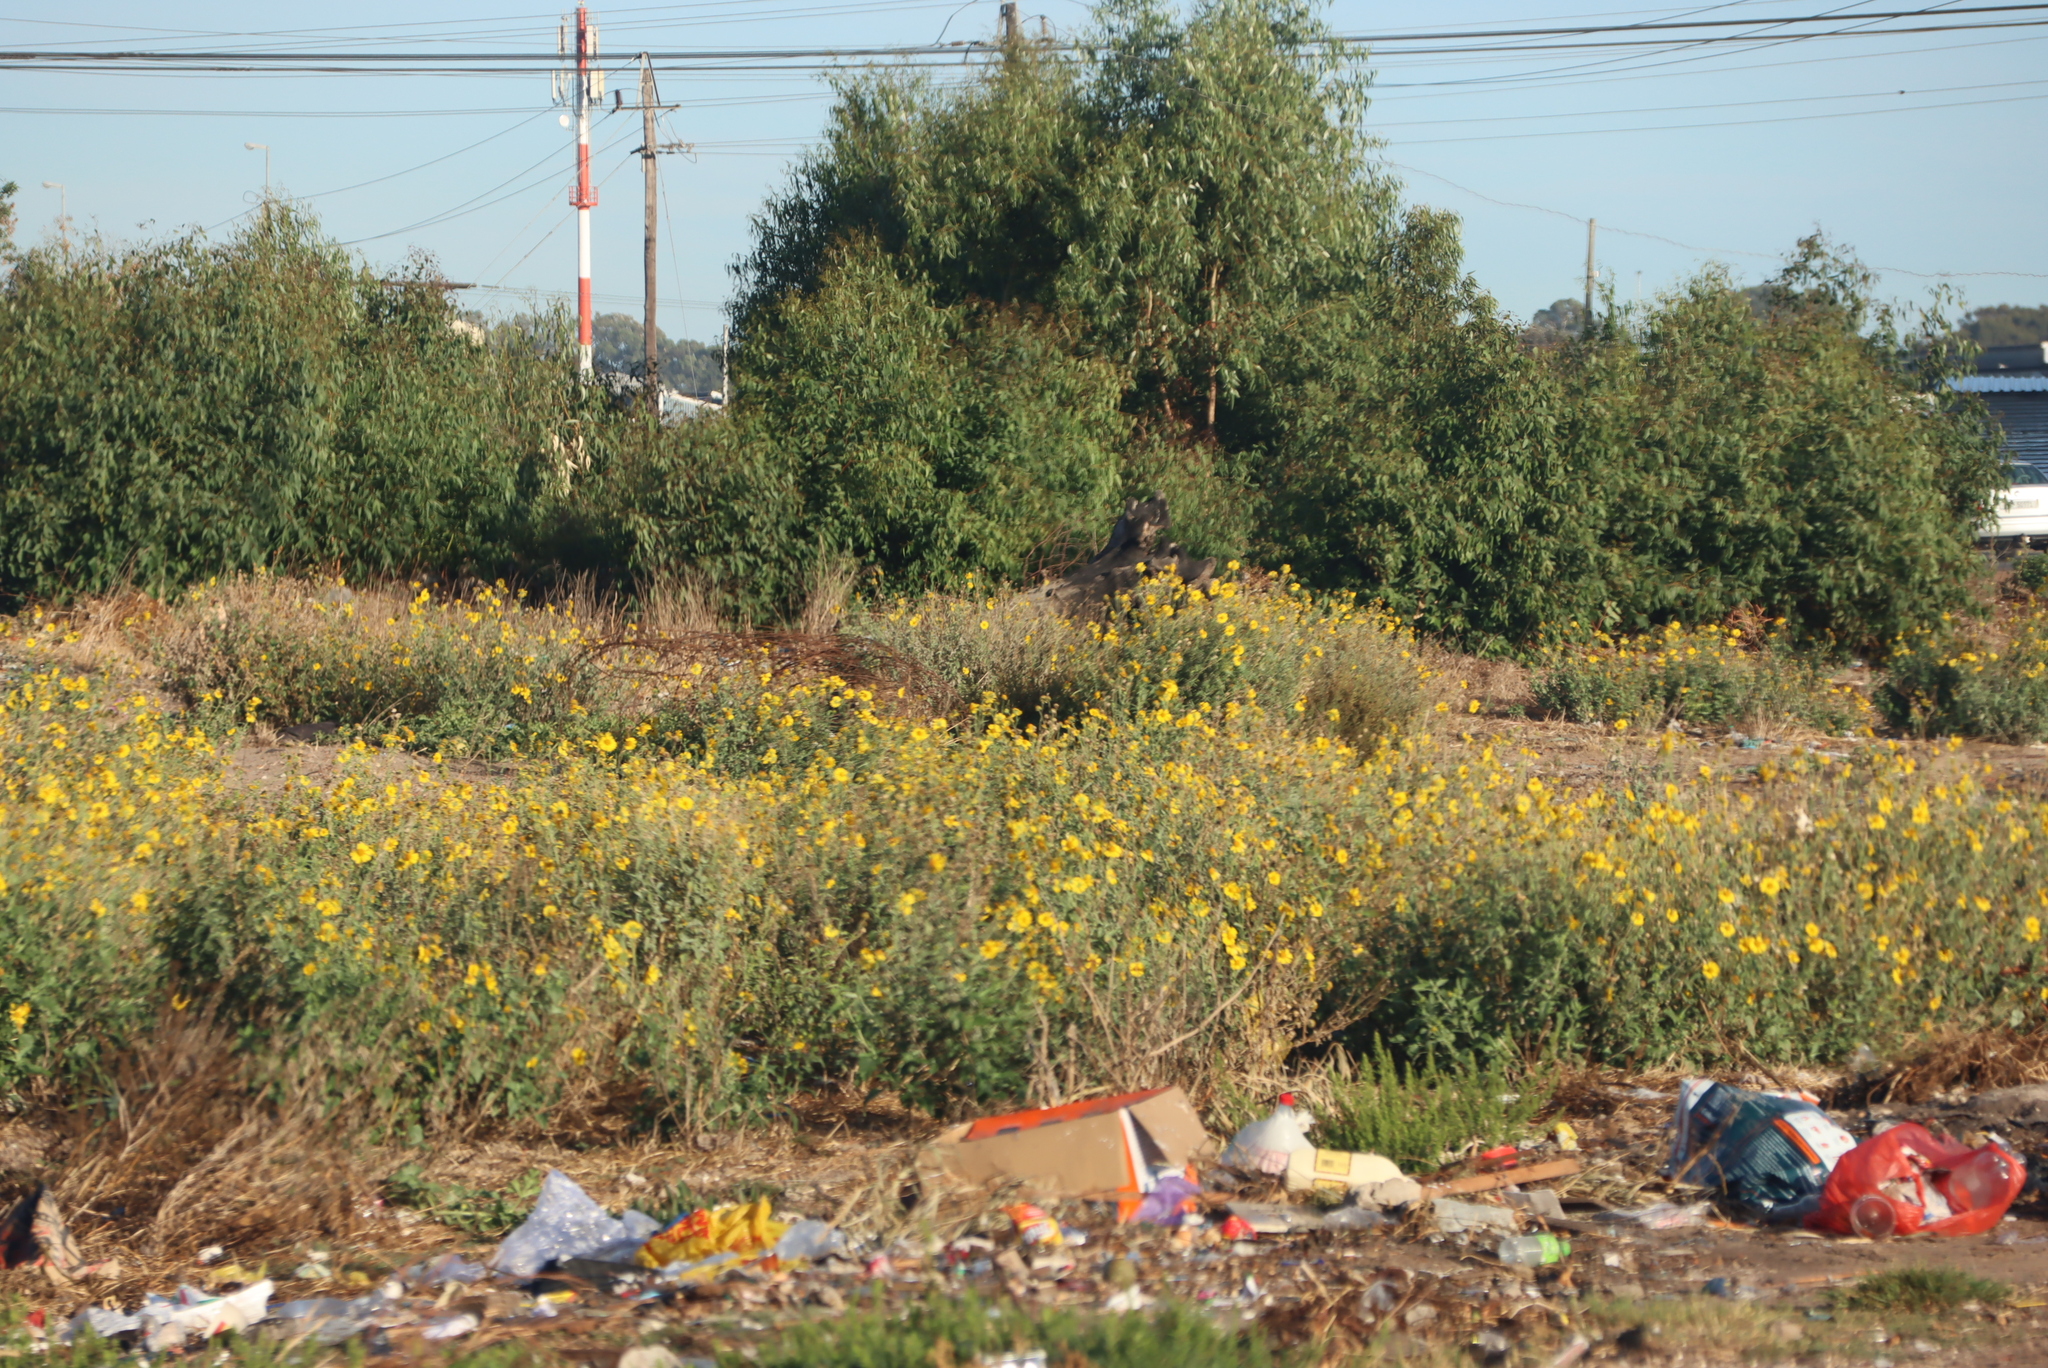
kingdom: Plantae
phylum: Tracheophyta
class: Magnoliopsida
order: Asterales
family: Asteraceae
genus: Verbesina
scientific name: Verbesina encelioides
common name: Golden crownbeard
